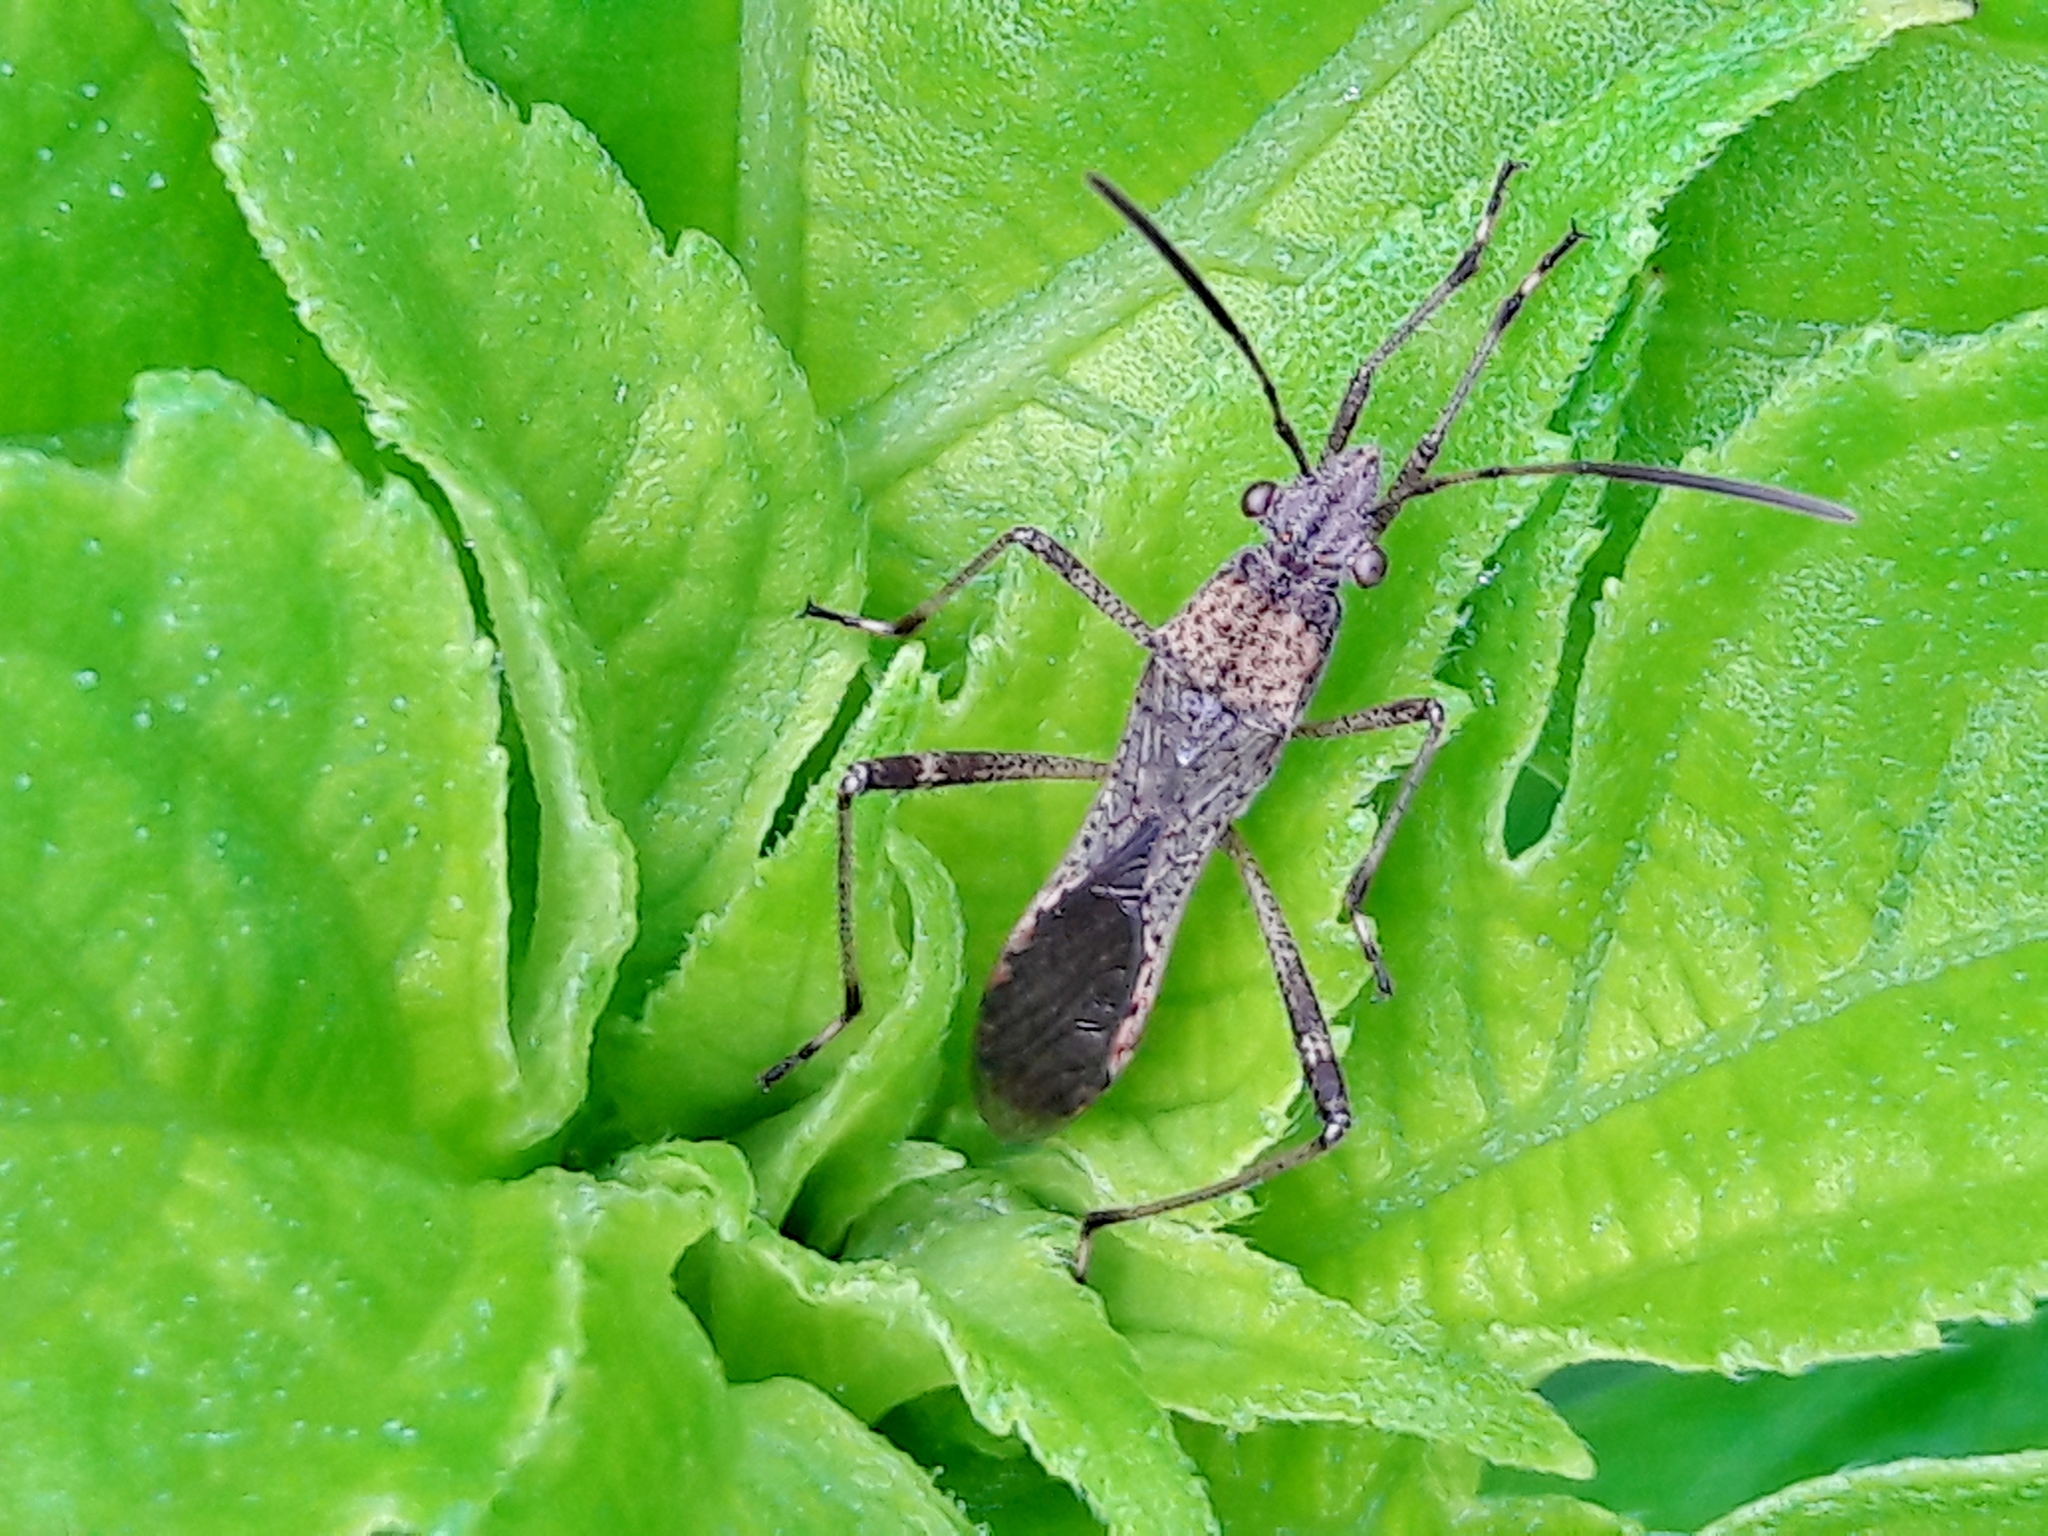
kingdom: Animalia
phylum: Arthropoda
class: Insecta
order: Hemiptera
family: Alydidae
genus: Neomegalotomus
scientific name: Neomegalotomus parvus
